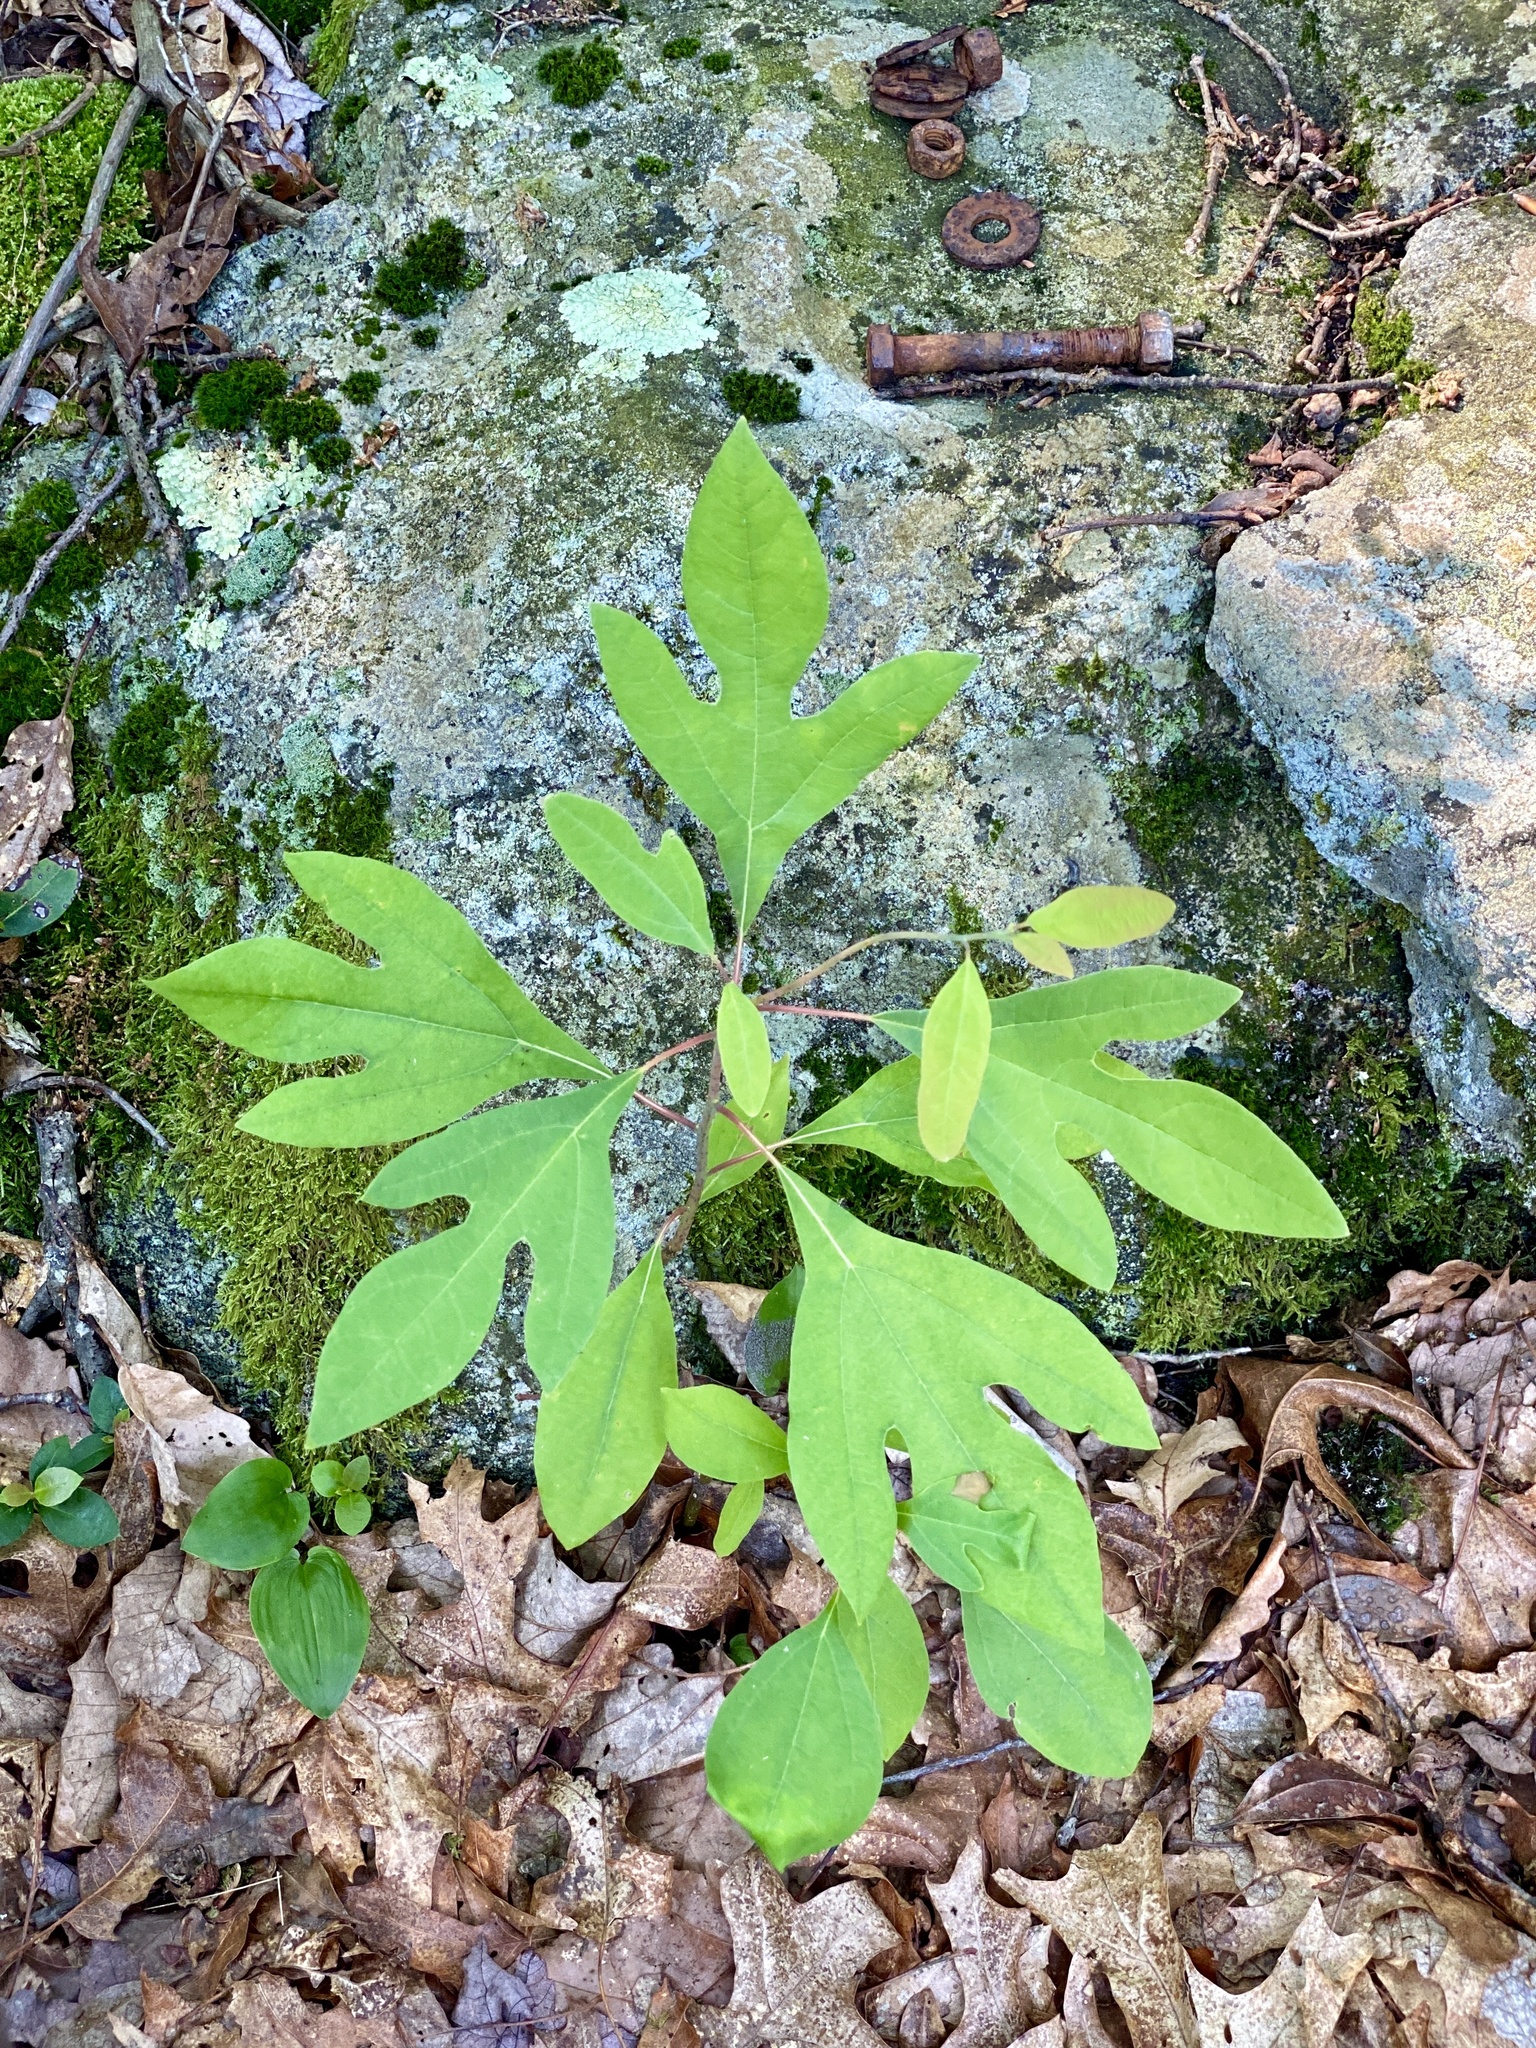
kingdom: Plantae
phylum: Tracheophyta
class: Magnoliopsida
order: Laurales
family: Lauraceae
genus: Sassafras
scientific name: Sassafras albidum
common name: Sassafras
